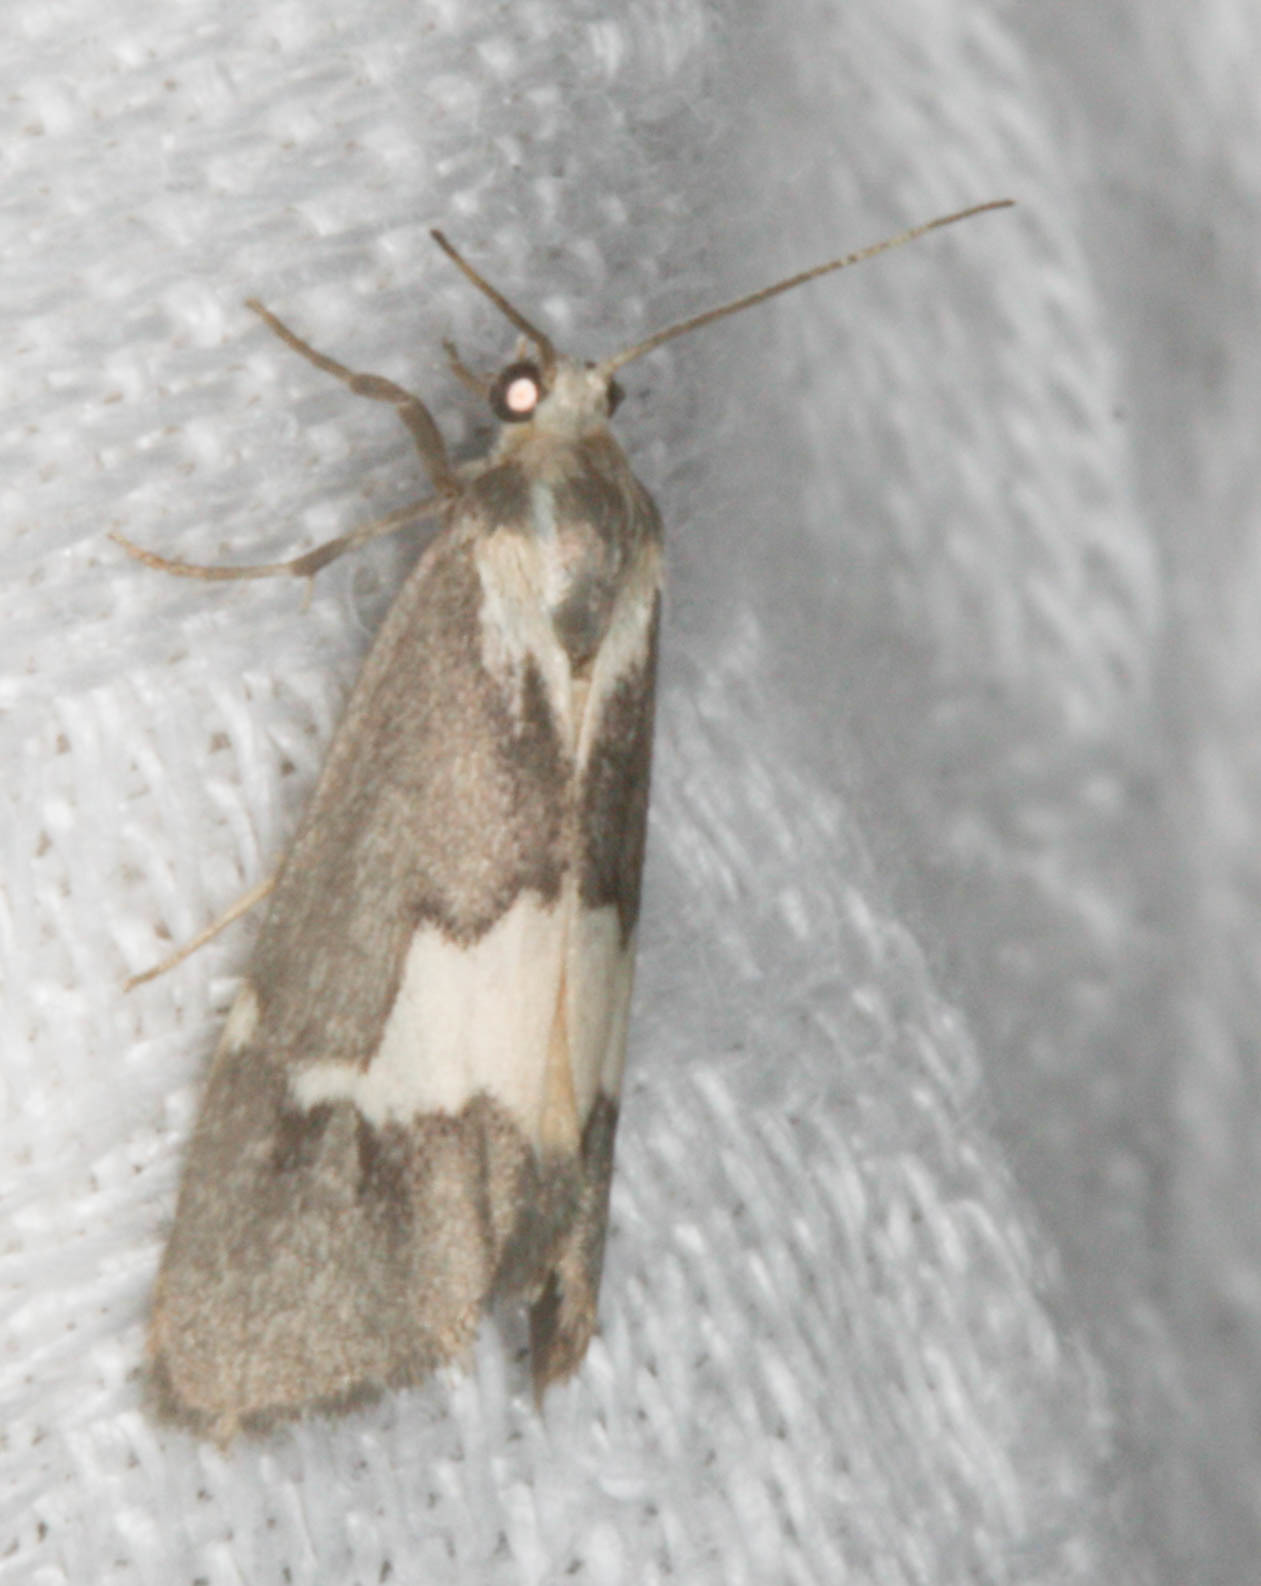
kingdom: Animalia
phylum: Arthropoda
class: Insecta
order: Lepidoptera
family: Erebidae
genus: Cisthene
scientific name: Cisthene deserta
